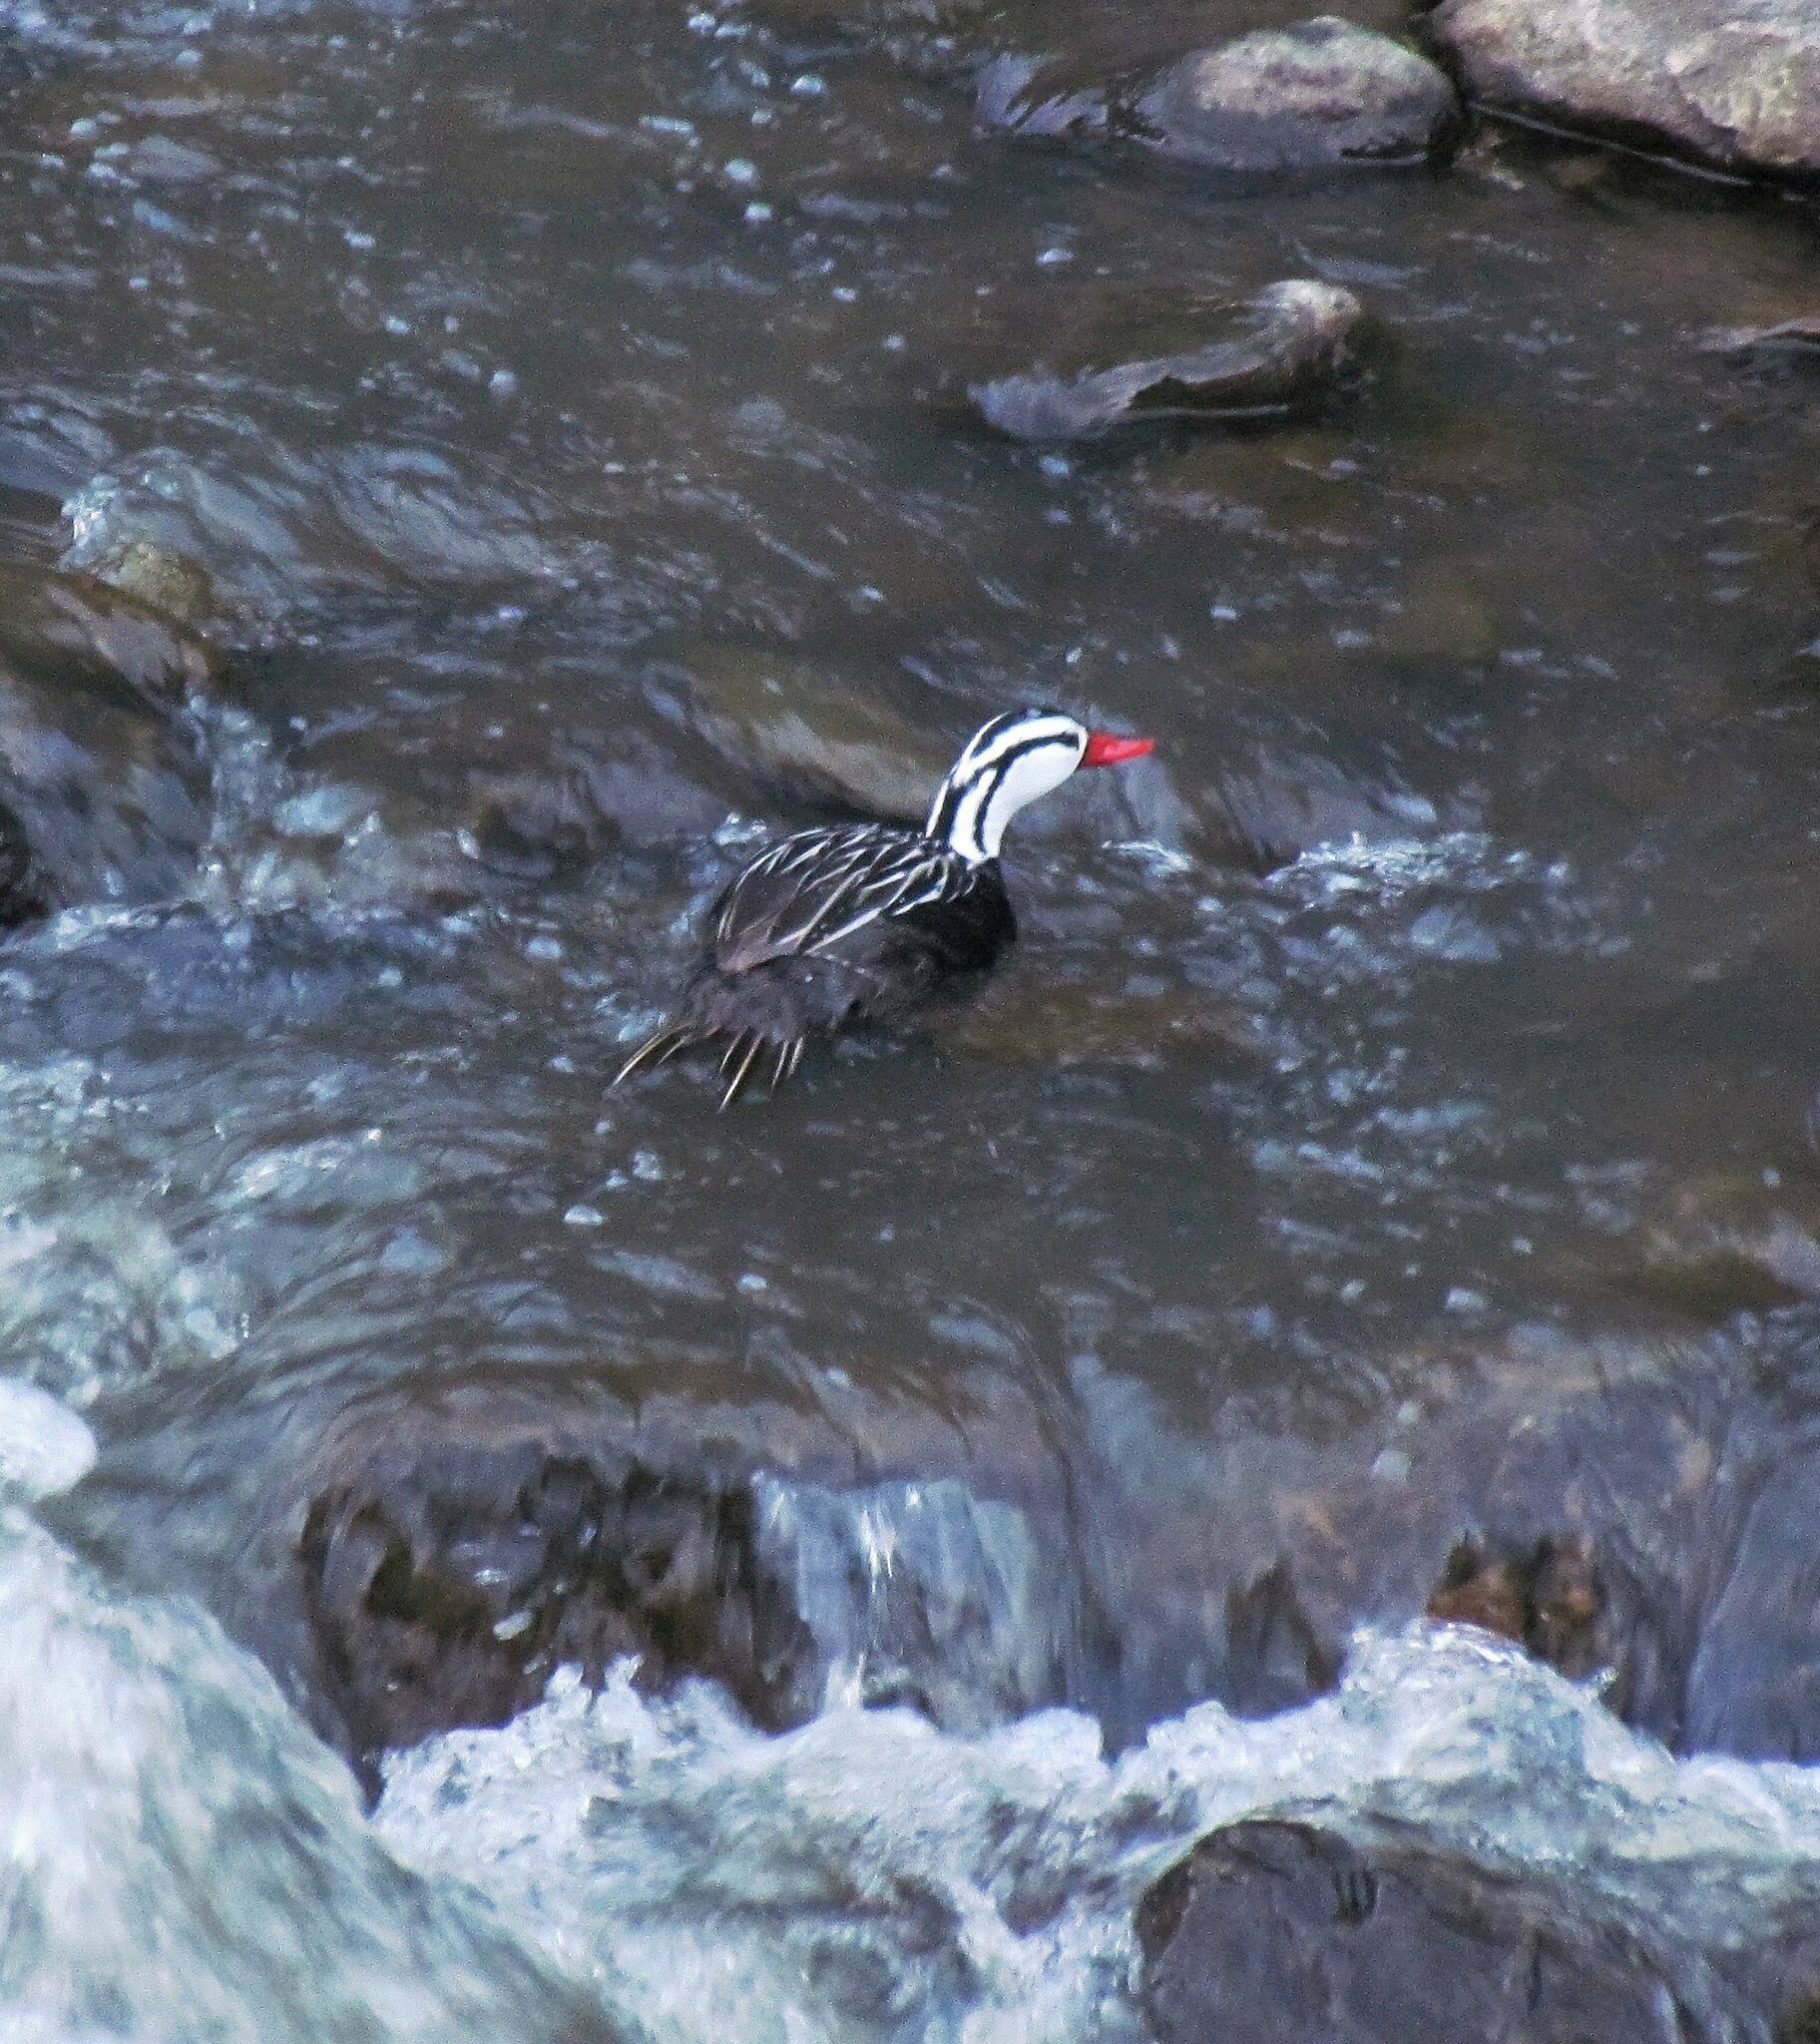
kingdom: Animalia
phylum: Chordata
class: Aves
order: Anseriformes
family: Anatidae
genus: Merganetta
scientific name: Merganetta armata
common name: Torrent duck
